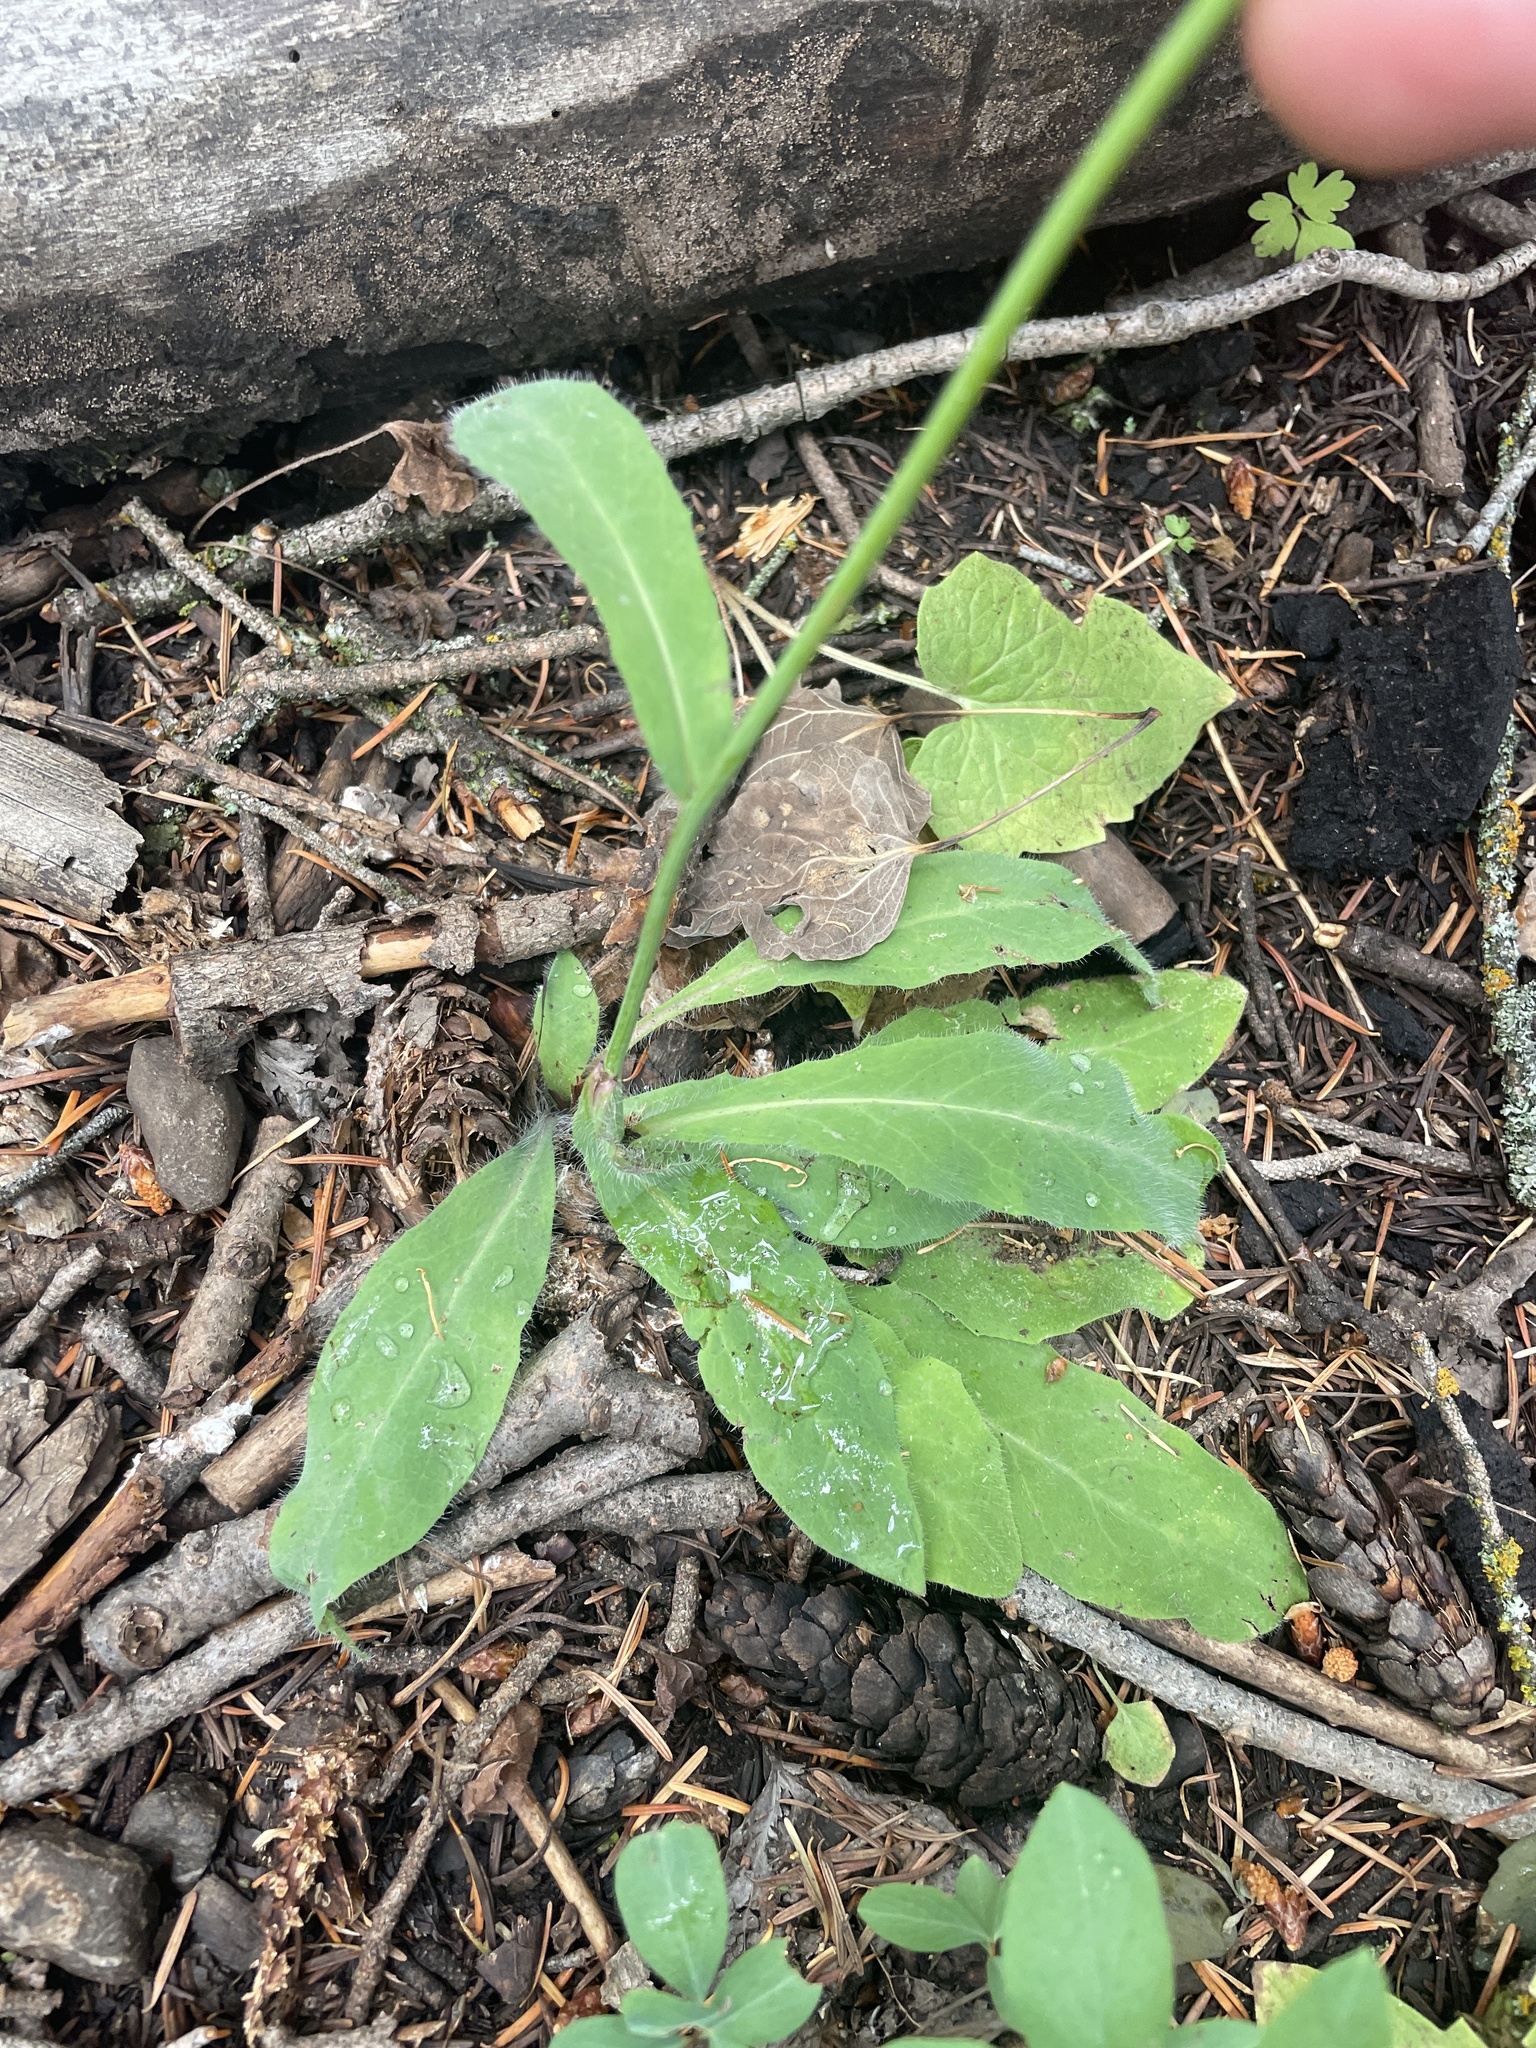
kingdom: Plantae
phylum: Tracheophyta
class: Magnoliopsida
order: Asterales
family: Asteraceae
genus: Hieracium
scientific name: Hieracium albiflorum
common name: White hawkweed
